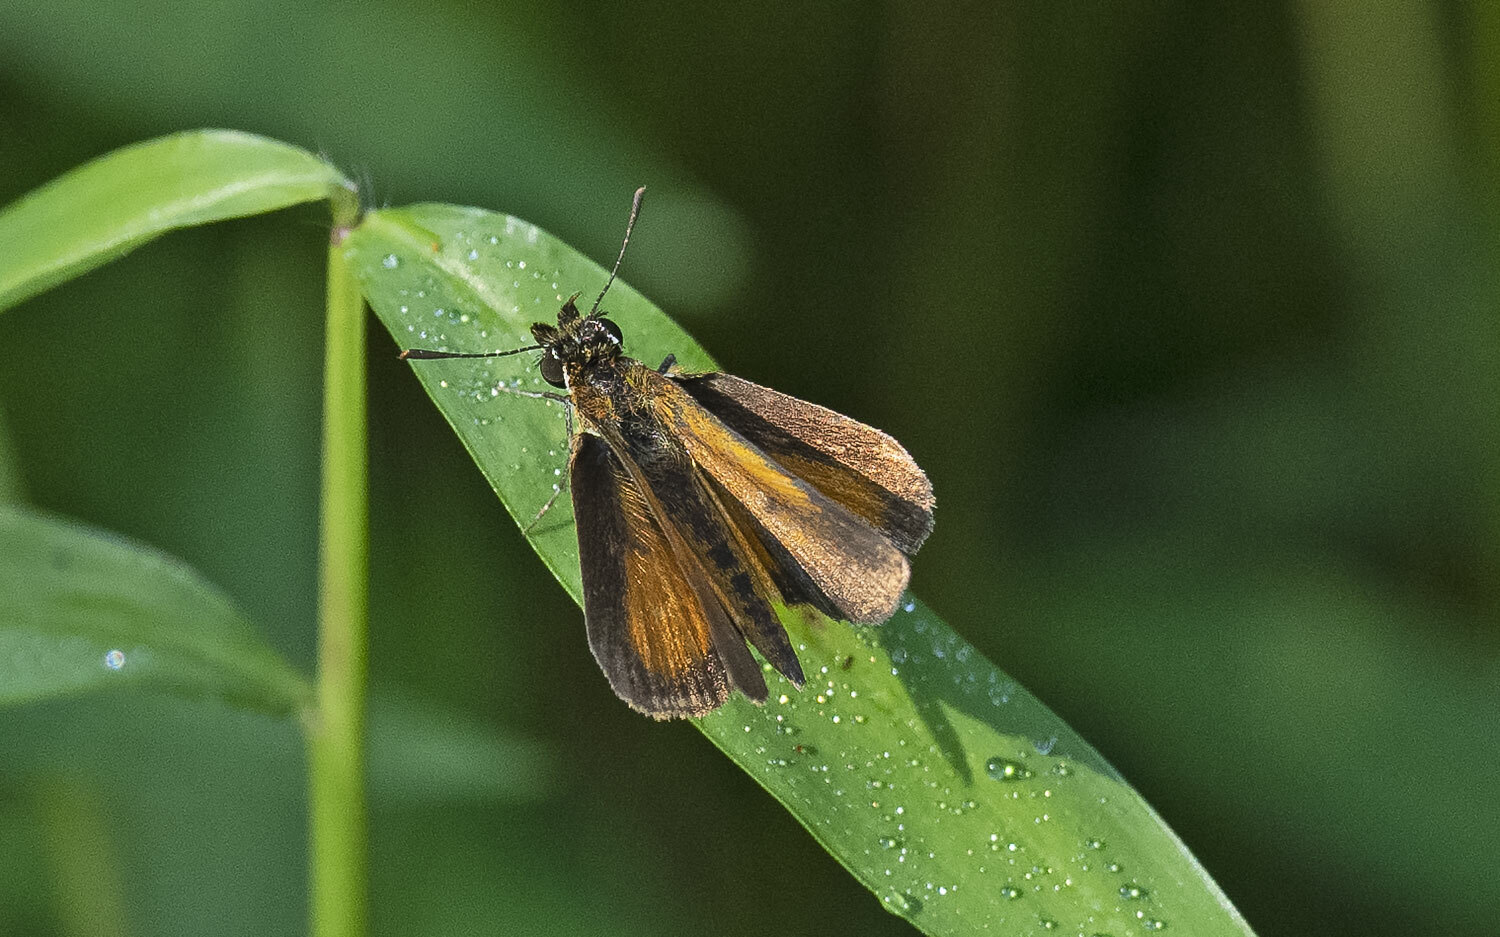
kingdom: Animalia
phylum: Arthropoda
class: Insecta
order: Lepidoptera
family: Hesperiidae
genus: Ancyloxypha
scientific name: Ancyloxypha numitor
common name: Least skipper
